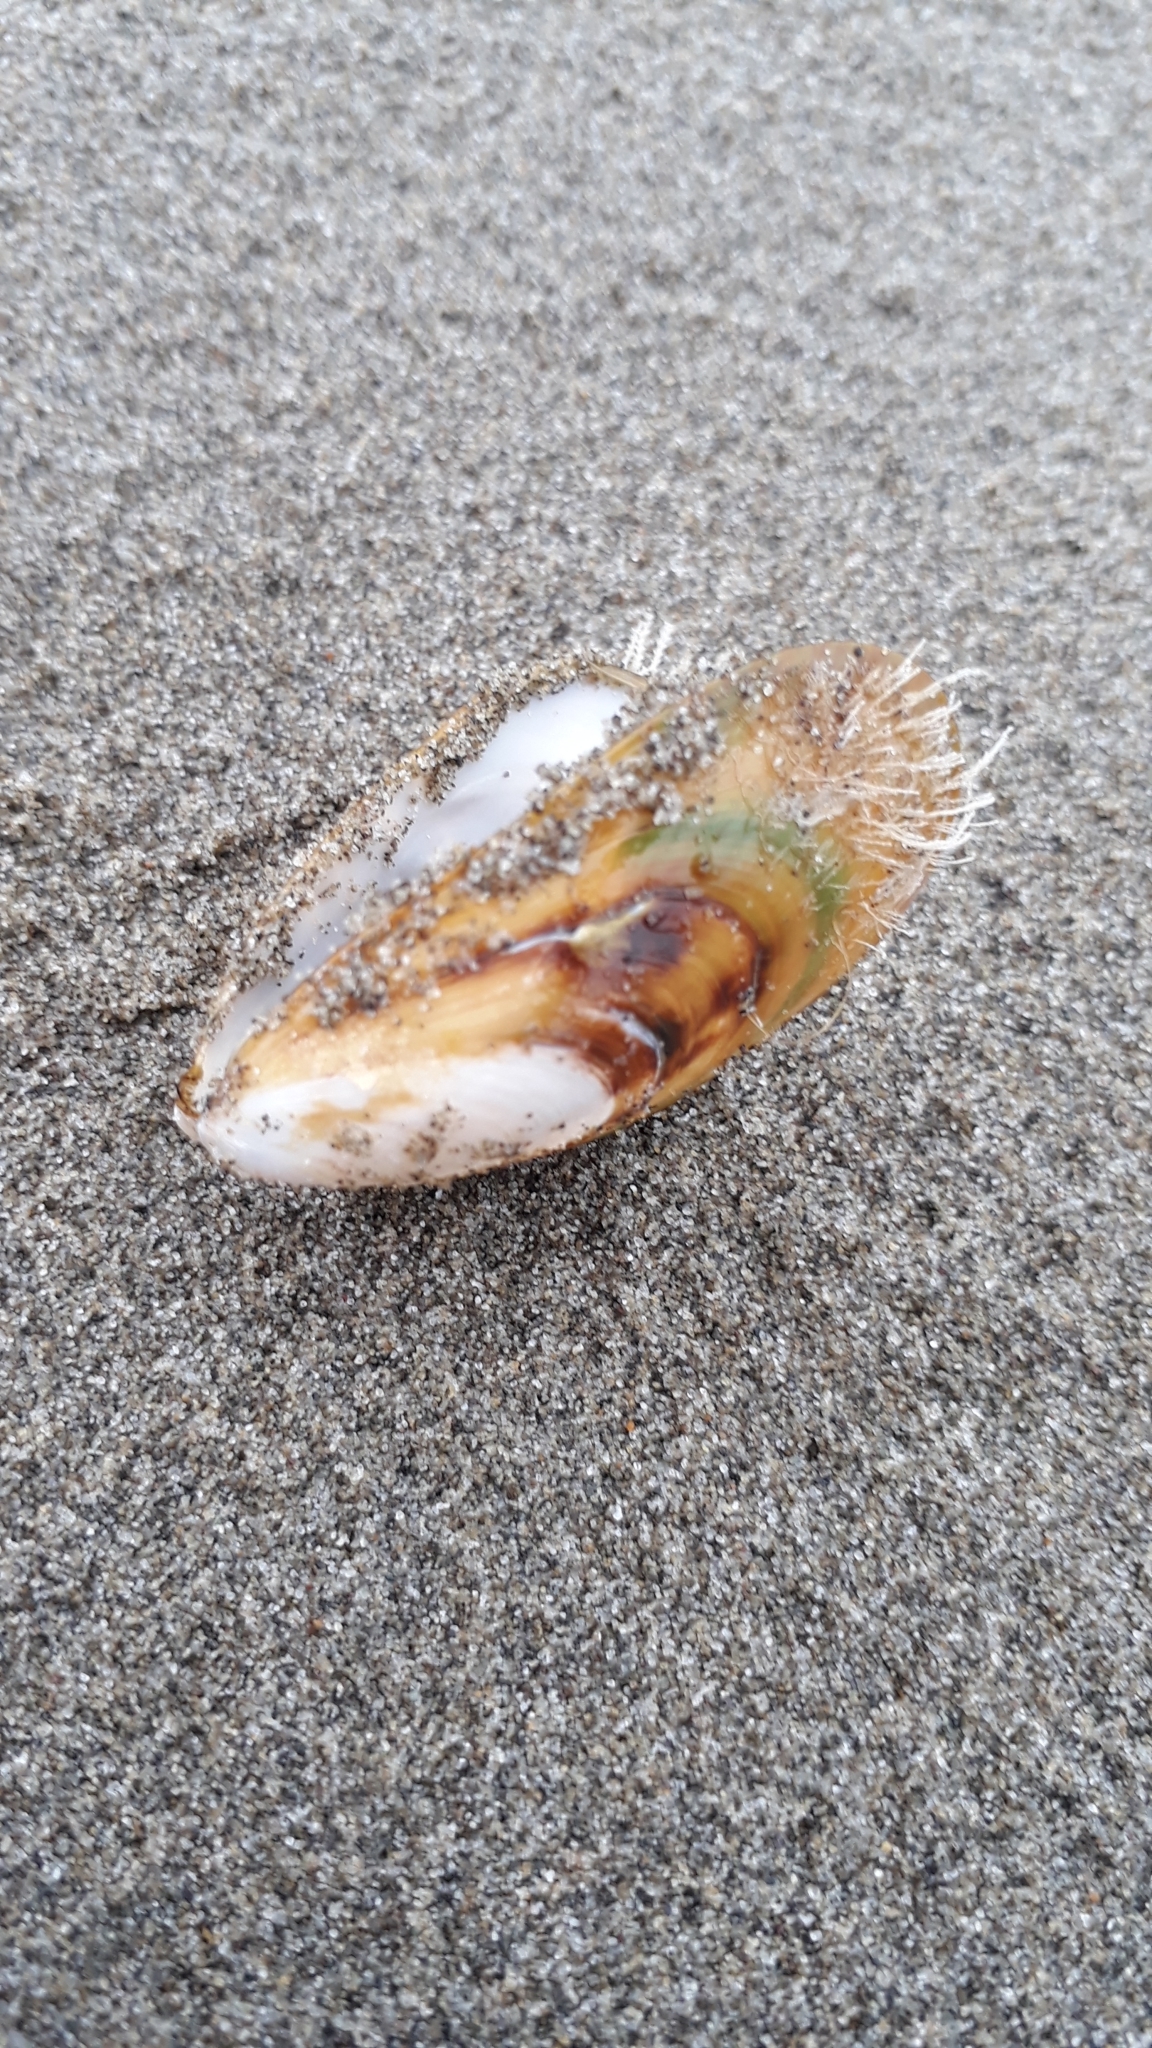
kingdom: Animalia
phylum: Mollusca
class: Bivalvia
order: Mytilida
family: Mytilidae
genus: Perna
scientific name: Perna canaliculus
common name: New zealand greenshelltm
